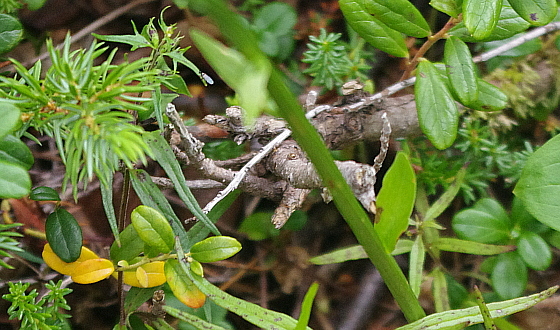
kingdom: Plantae
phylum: Tracheophyta
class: Magnoliopsida
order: Ericales
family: Ericaceae
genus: Vaccinium
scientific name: Vaccinium vitis-idaea
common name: Cowberry
